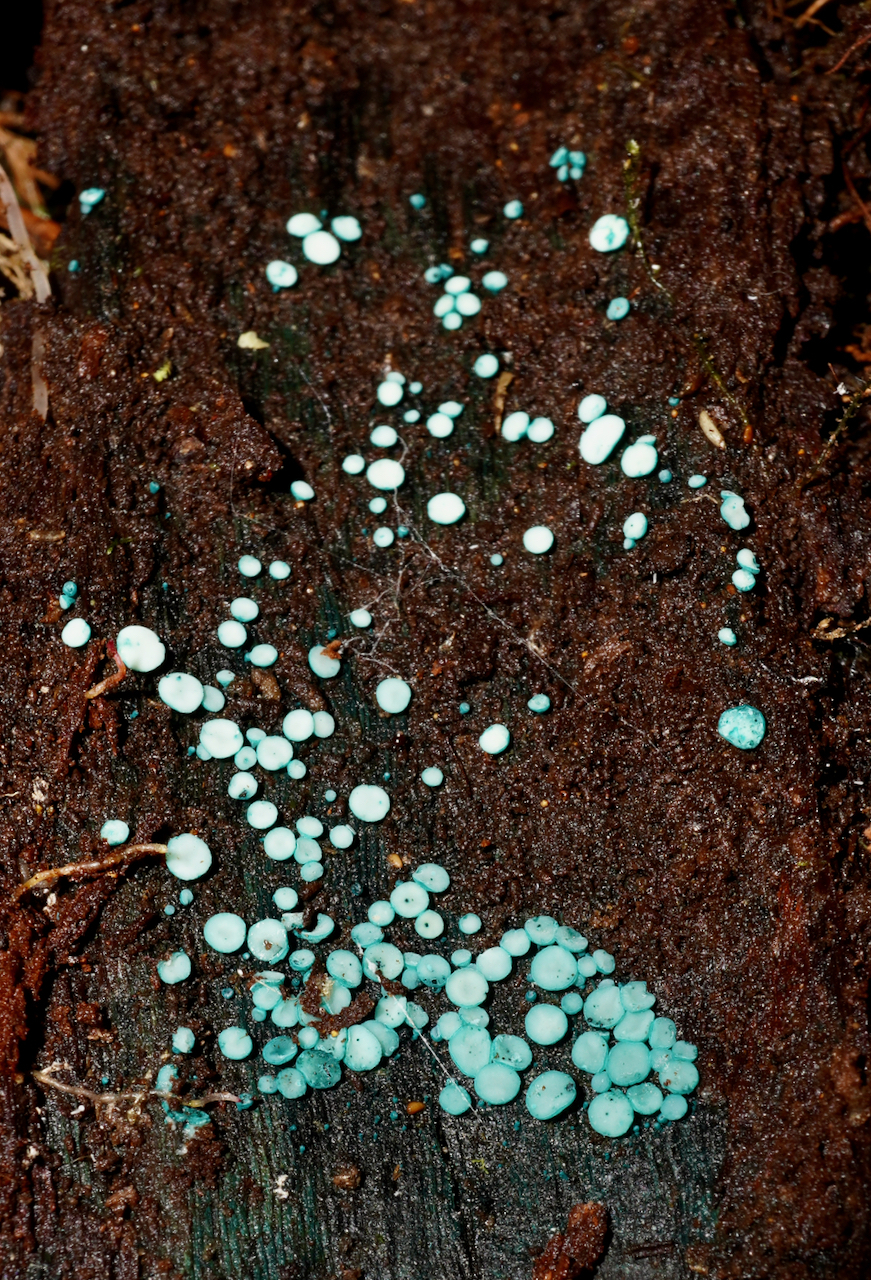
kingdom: Fungi
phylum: Ascomycota
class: Leotiomycetes
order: Helotiales
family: Chlorociboriaceae
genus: Chlorociboria
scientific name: Chlorociboria
